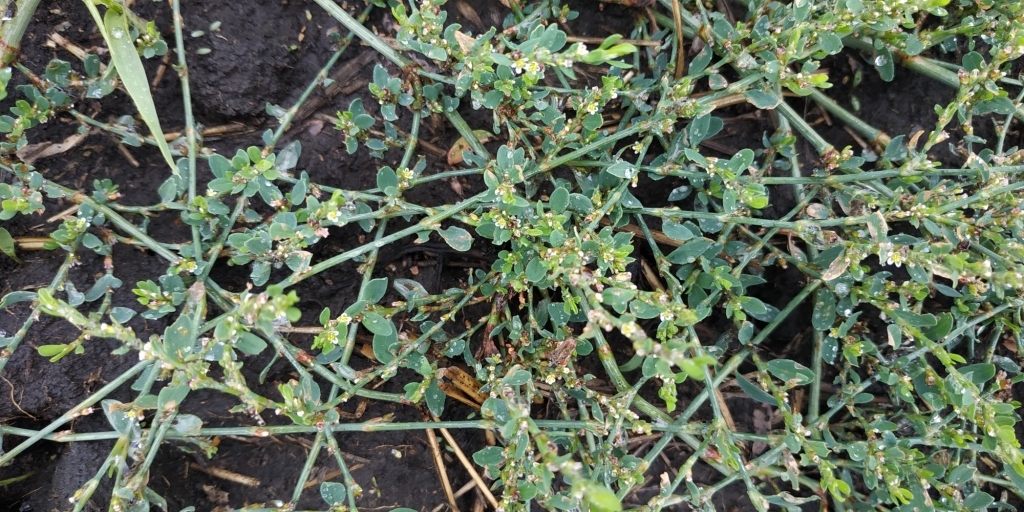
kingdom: Plantae
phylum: Tracheophyta
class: Magnoliopsida
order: Caryophyllales
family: Polygonaceae
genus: Polygonum
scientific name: Polygonum
